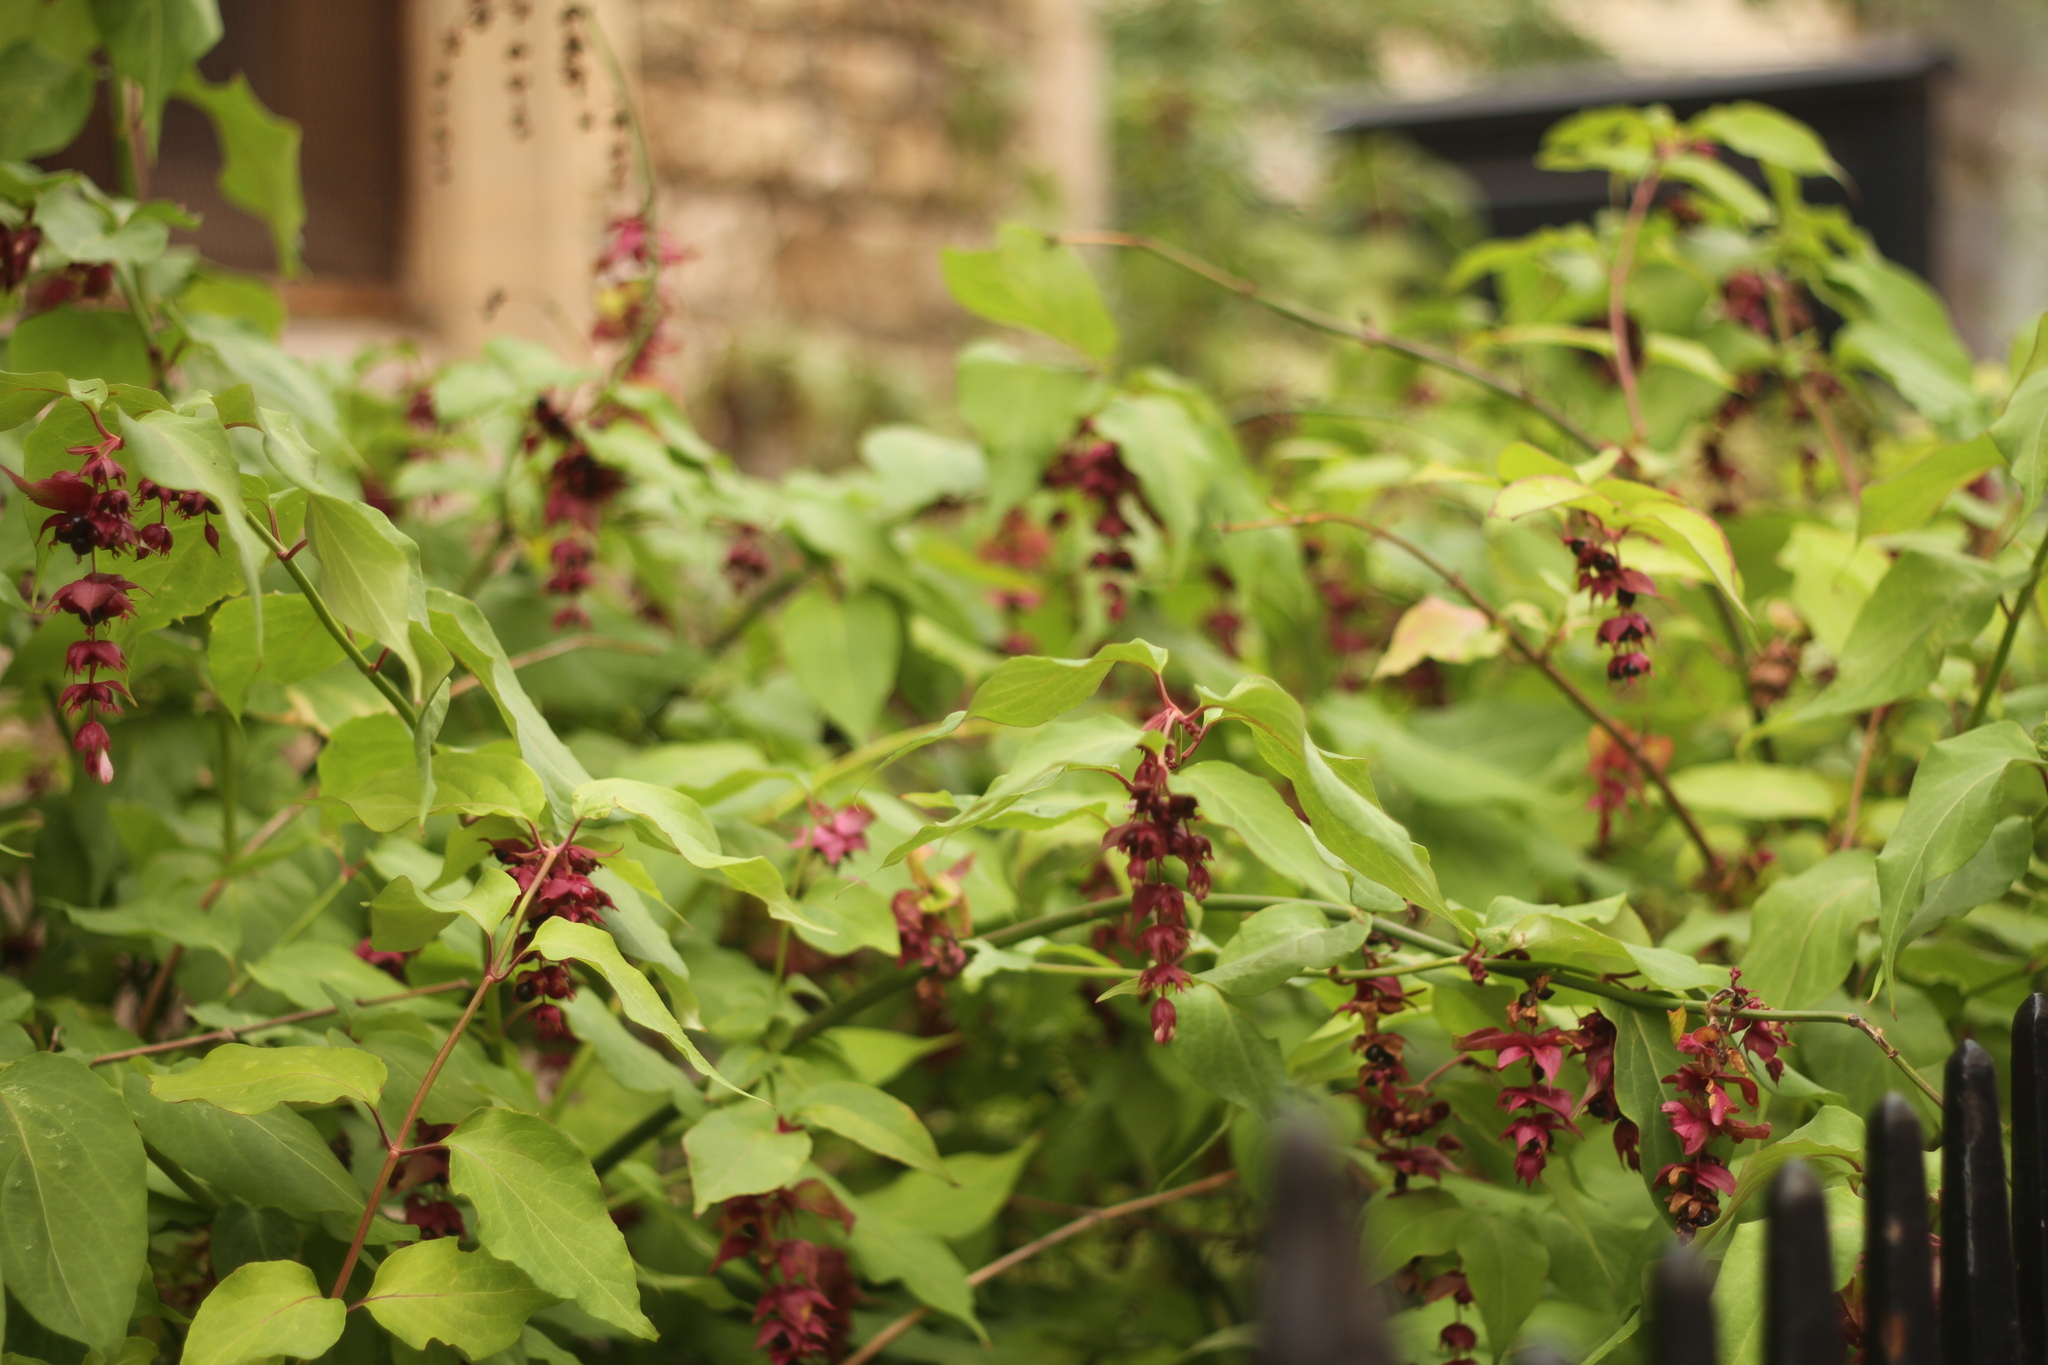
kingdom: Plantae
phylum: Tracheophyta
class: Magnoliopsida
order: Dipsacales
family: Caprifoliaceae
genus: Leycesteria
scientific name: Leycesteria formosa
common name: Himalayan honeysuckle
